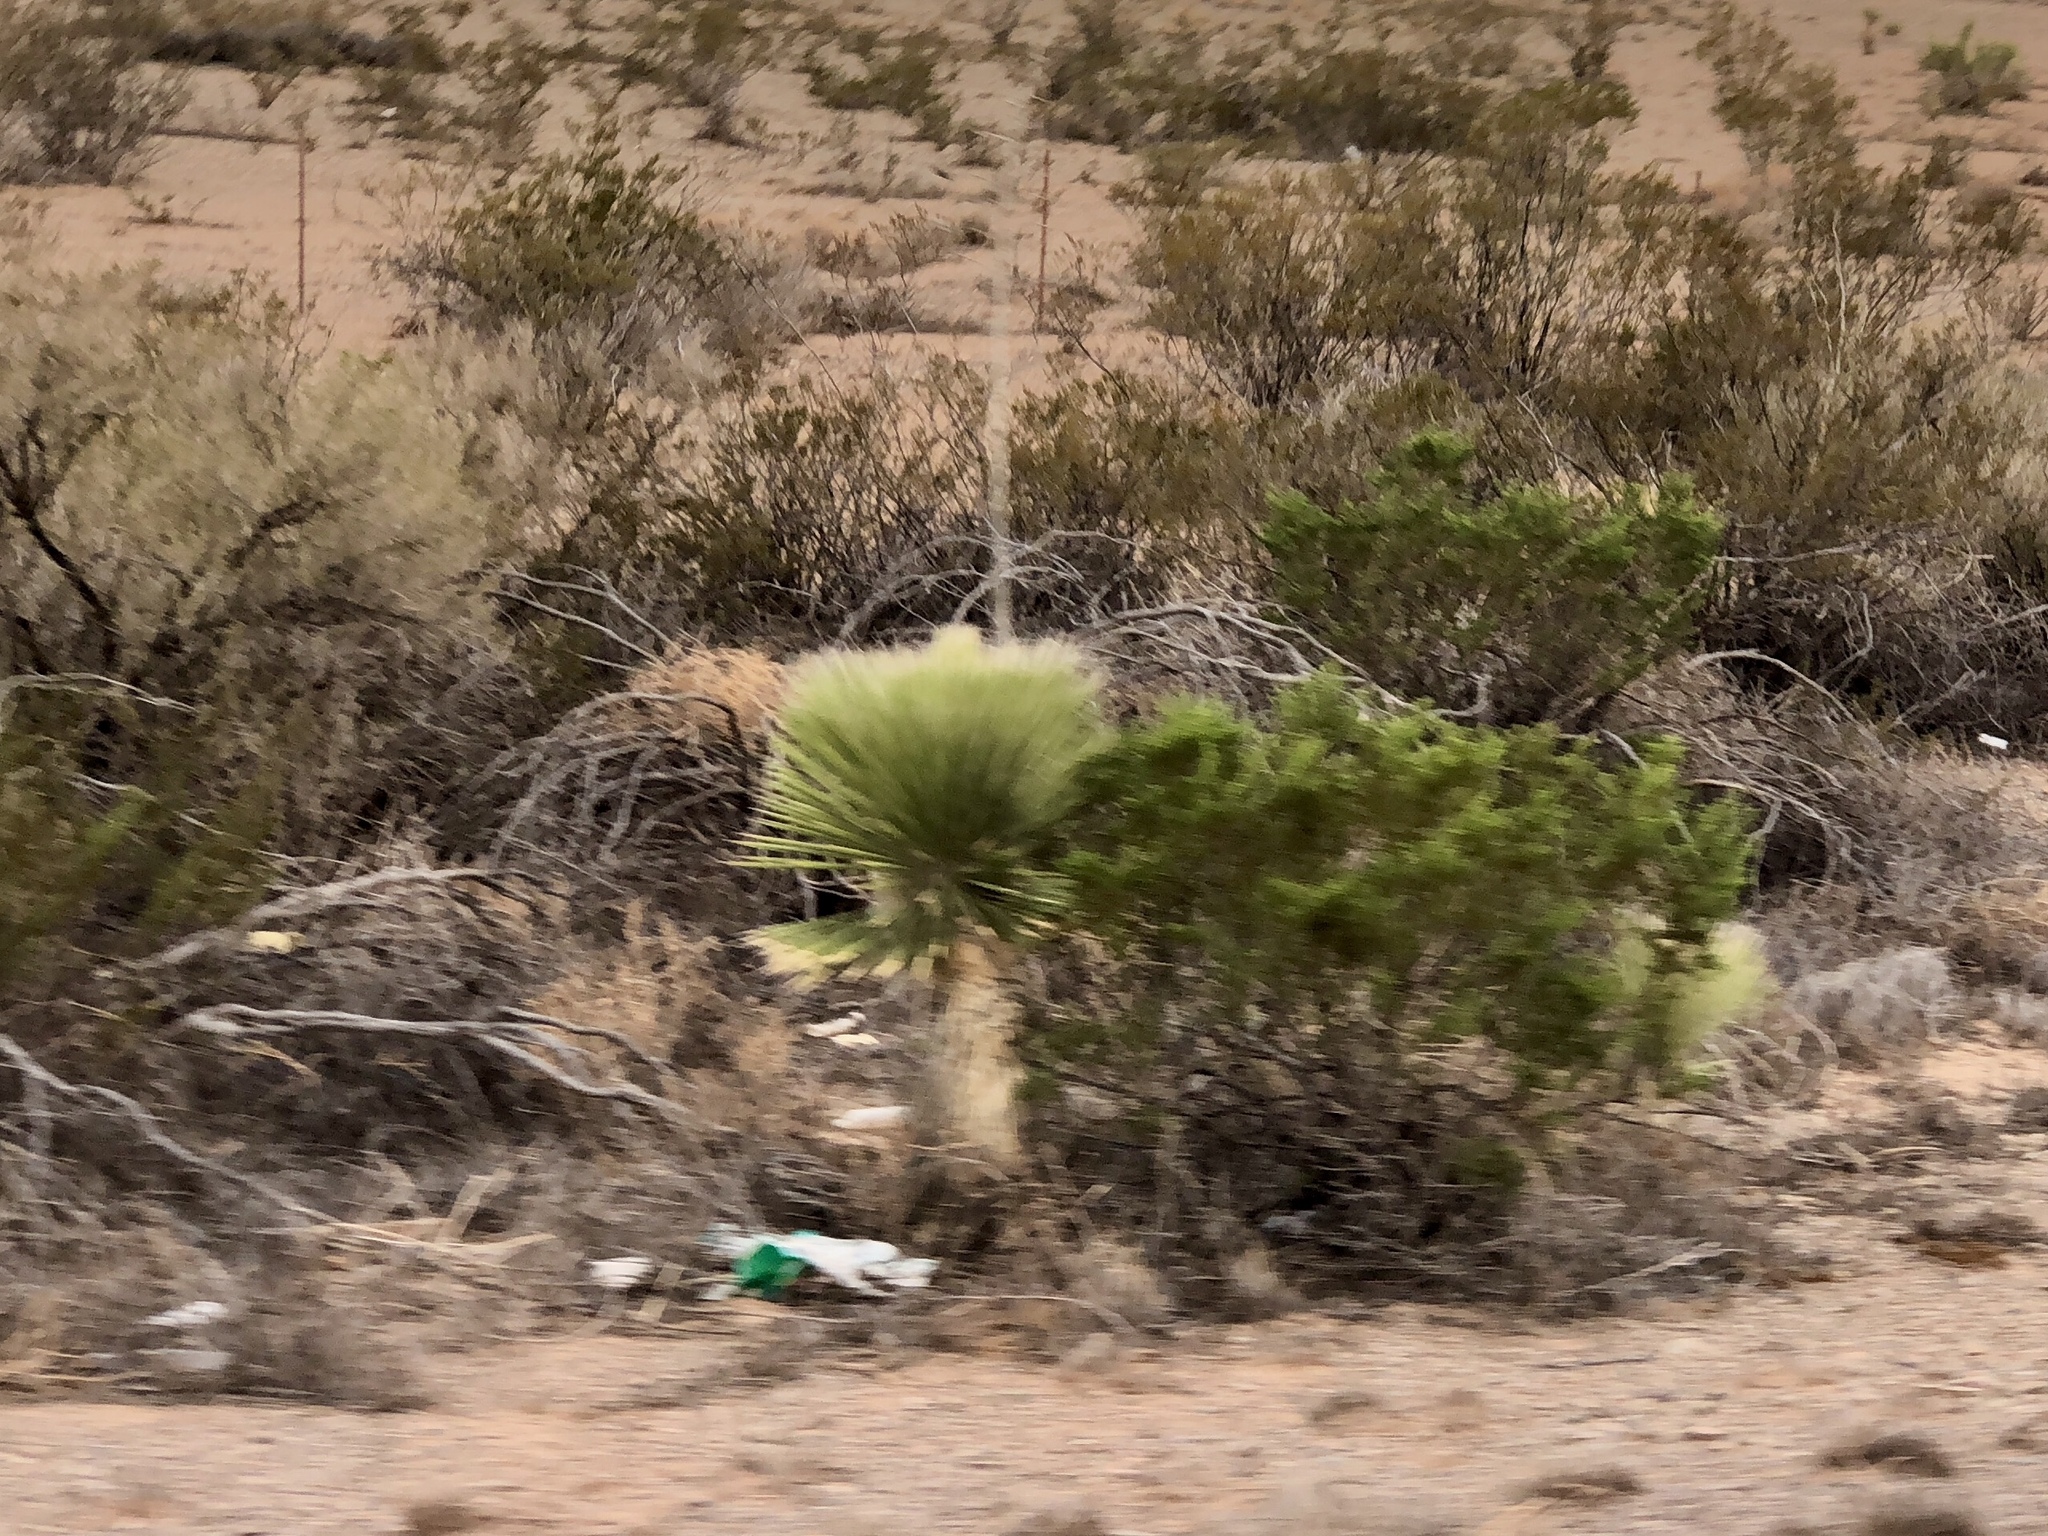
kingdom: Plantae
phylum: Tracheophyta
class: Liliopsida
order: Asparagales
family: Asparagaceae
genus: Yucca
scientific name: Yucca elata
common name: Palmella
